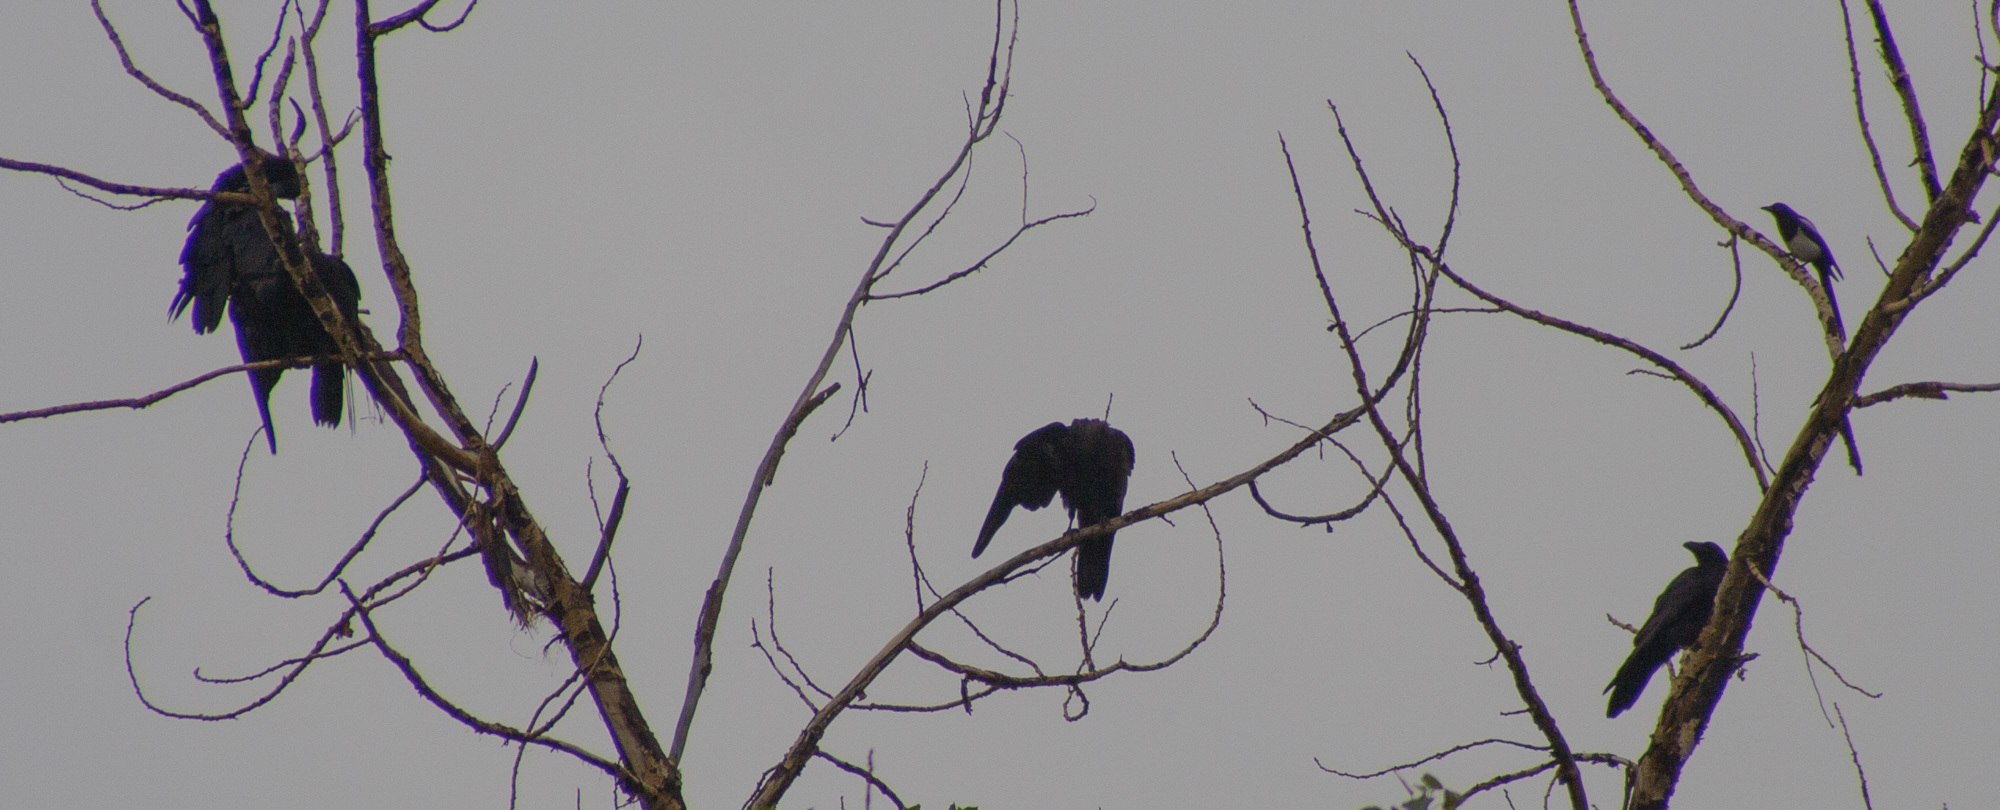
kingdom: Animalia
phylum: Chordata
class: Aves
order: Passeriformes
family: Corvidae
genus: Pica
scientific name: Pica hudsonia
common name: Black-billed magpie
